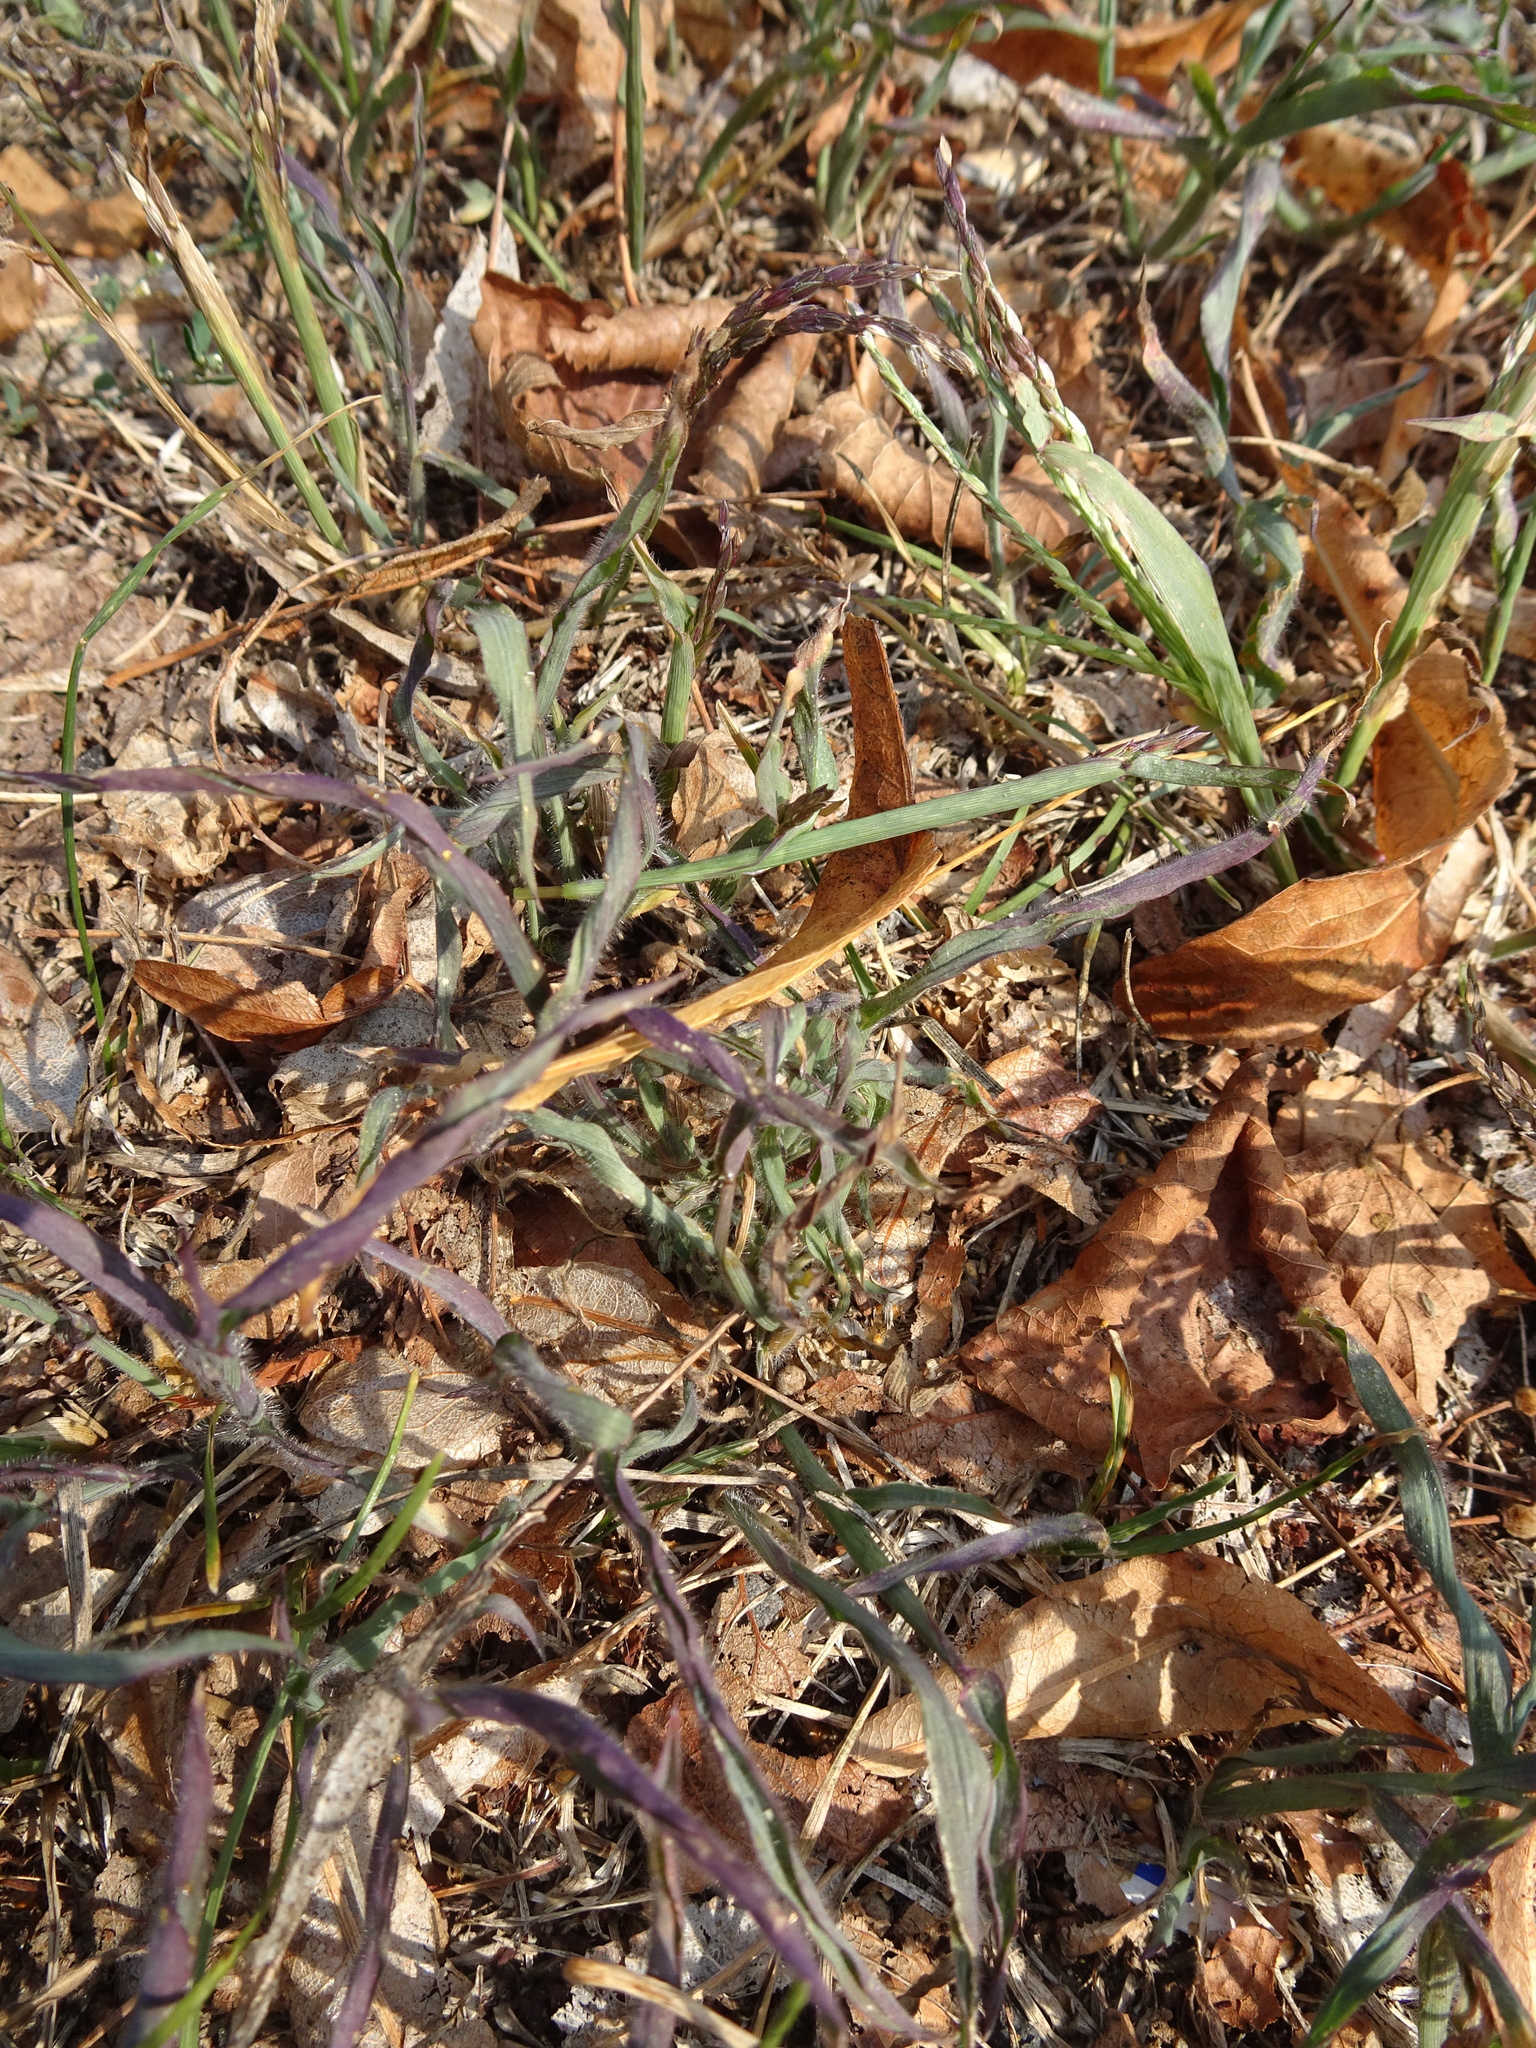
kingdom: Plantae
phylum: Tracheophyta
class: Liliopsida
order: Poales
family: Poaceae
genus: Digitaria
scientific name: Digitaria sanguinalis
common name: Hairy crabgrass
